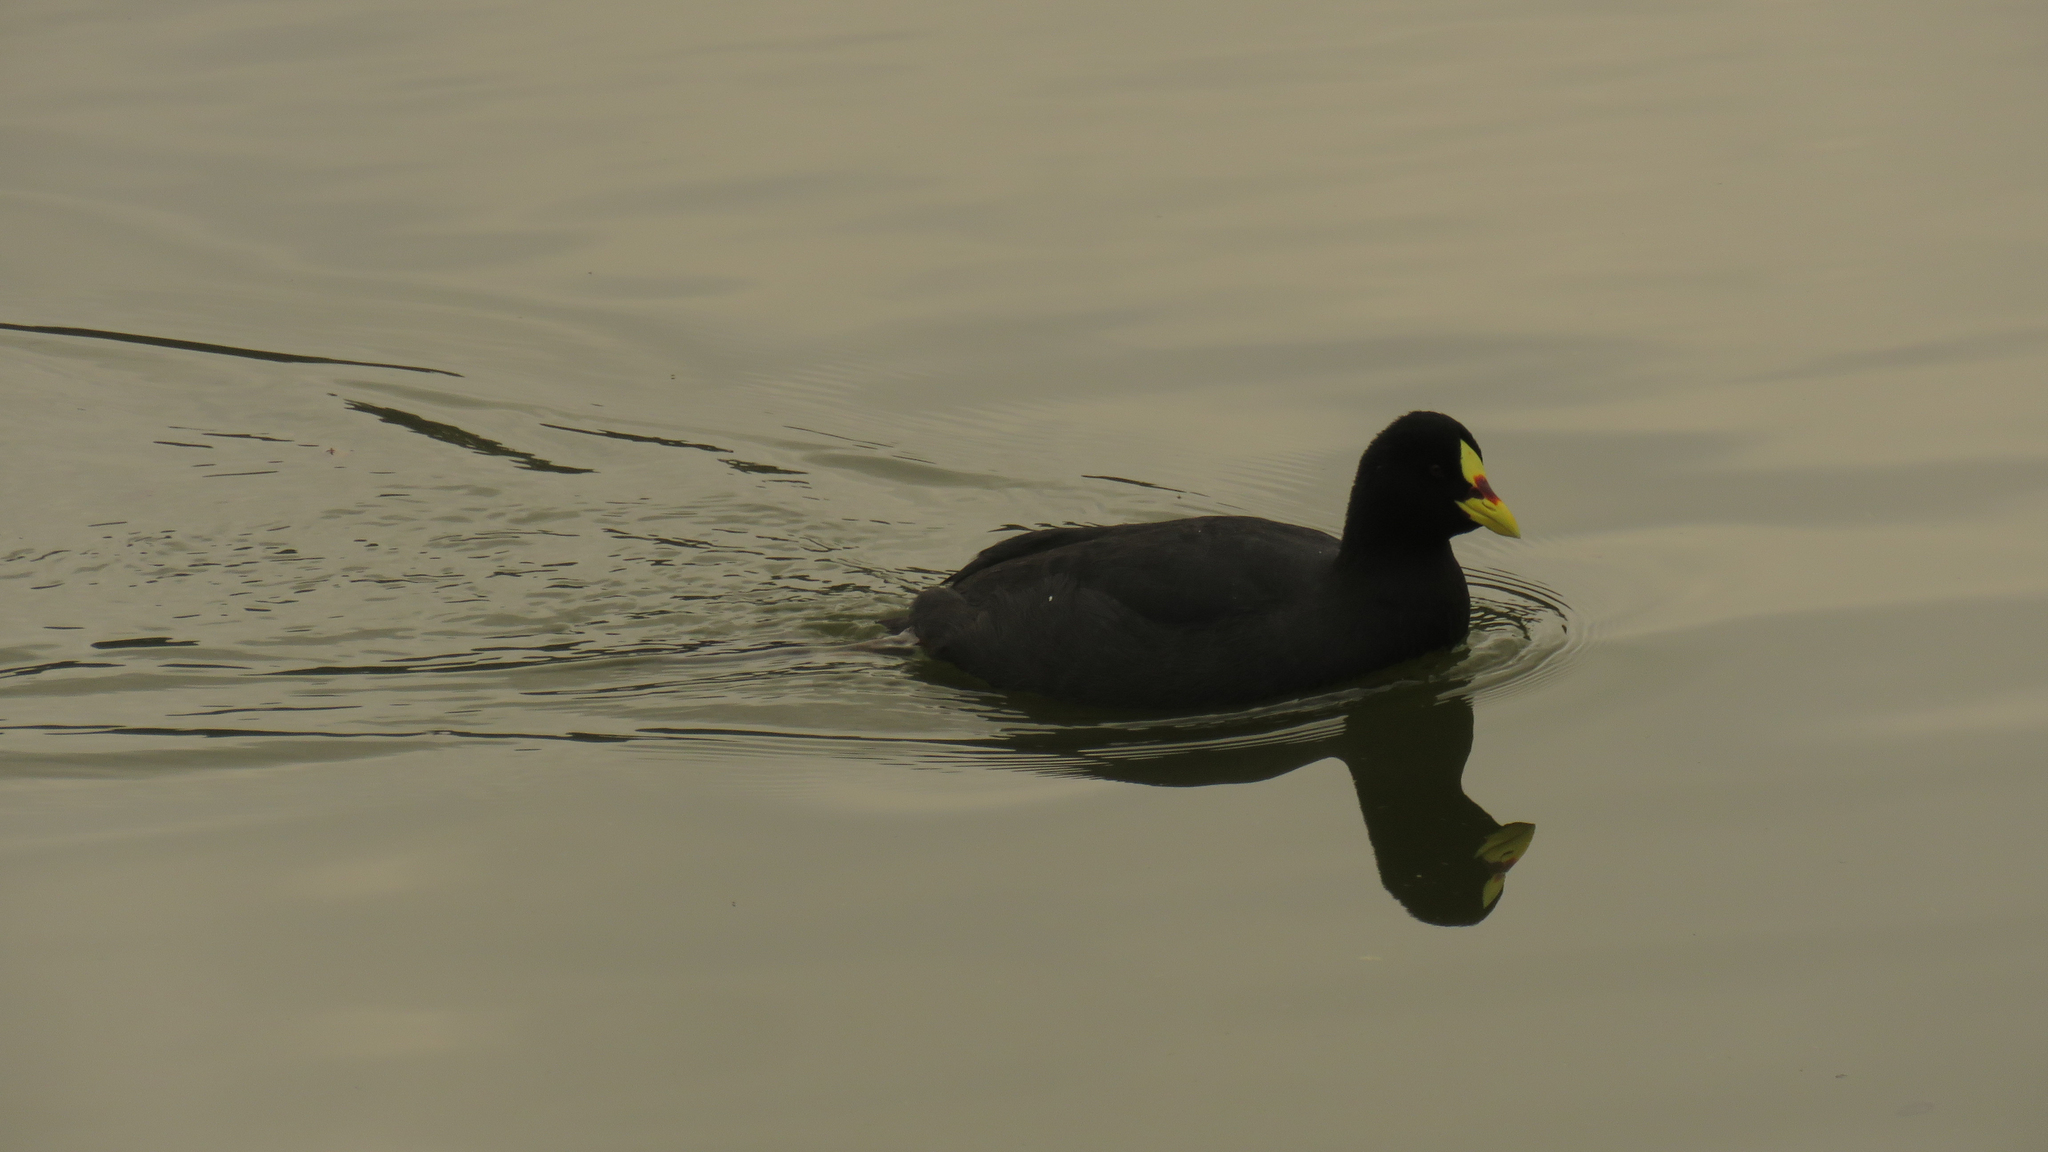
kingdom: Animalia
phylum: Chordata
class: Aves
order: Gruiformes
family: Rallidae
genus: Fulica
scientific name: Fulica armillata
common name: Red-gartered coot
